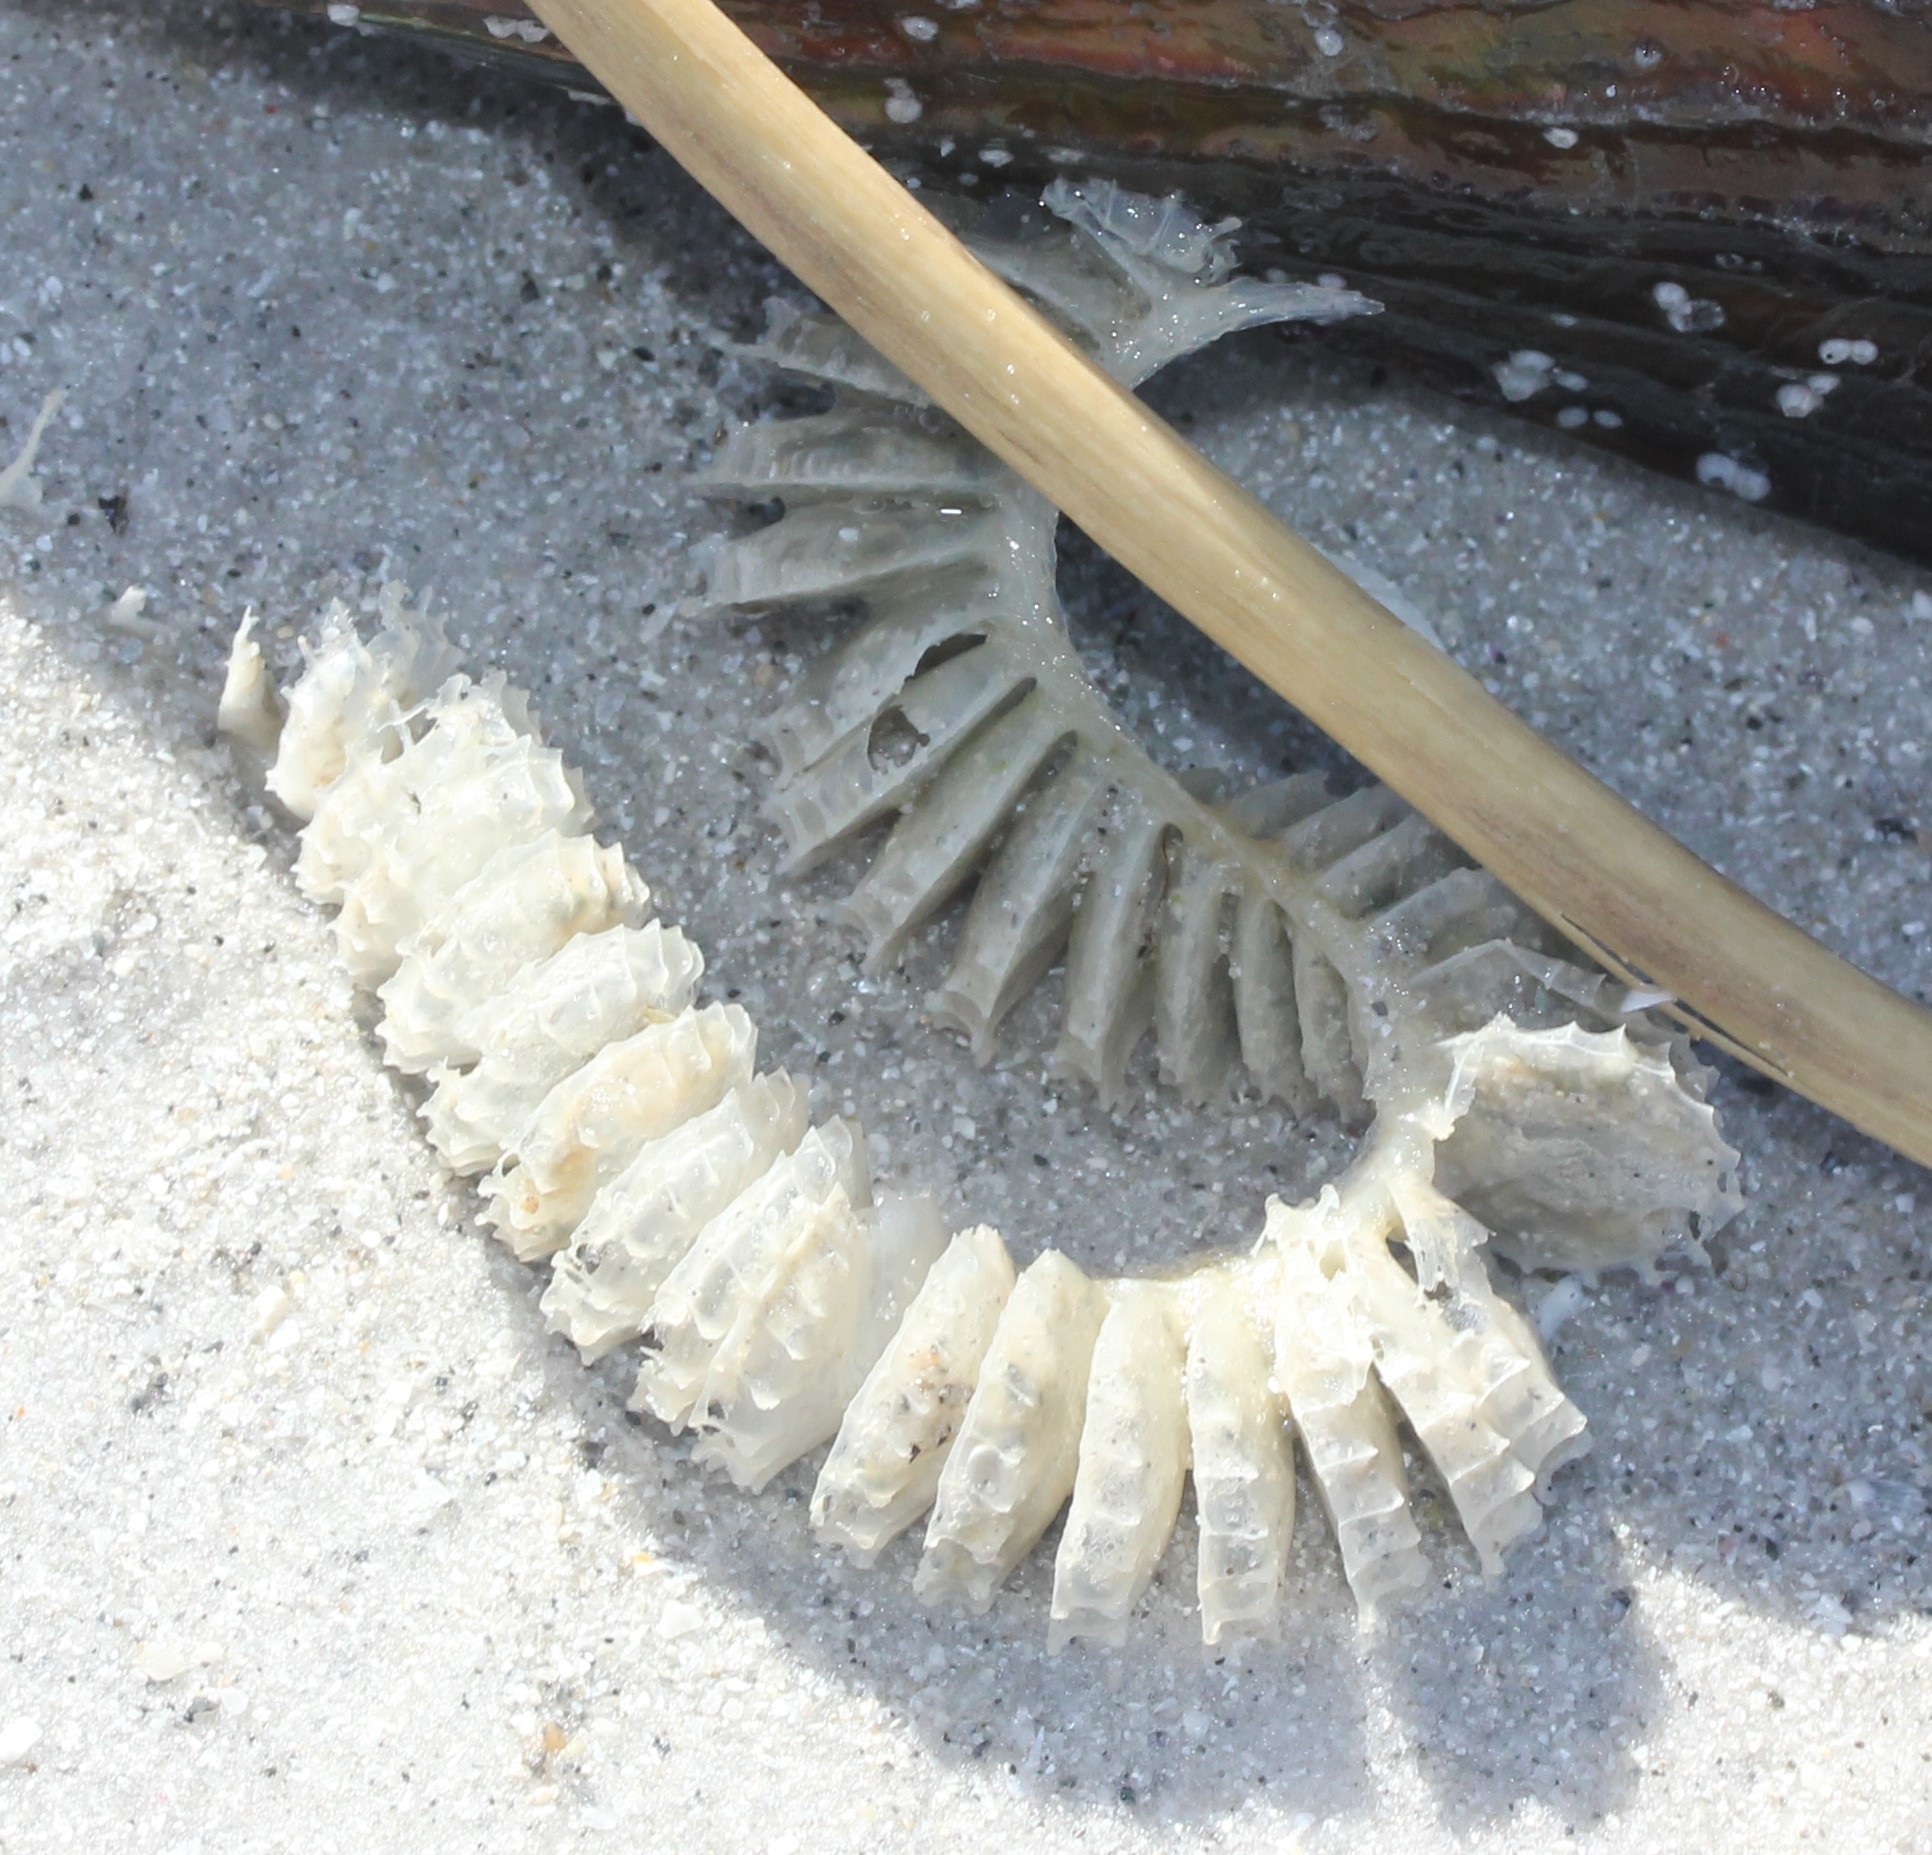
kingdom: Animalia
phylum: Mollusca
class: Gastropoda
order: Neogastropoda
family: Busyconidae
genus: Sinistrofulgur
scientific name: Sinistrofulgur sinistrum
